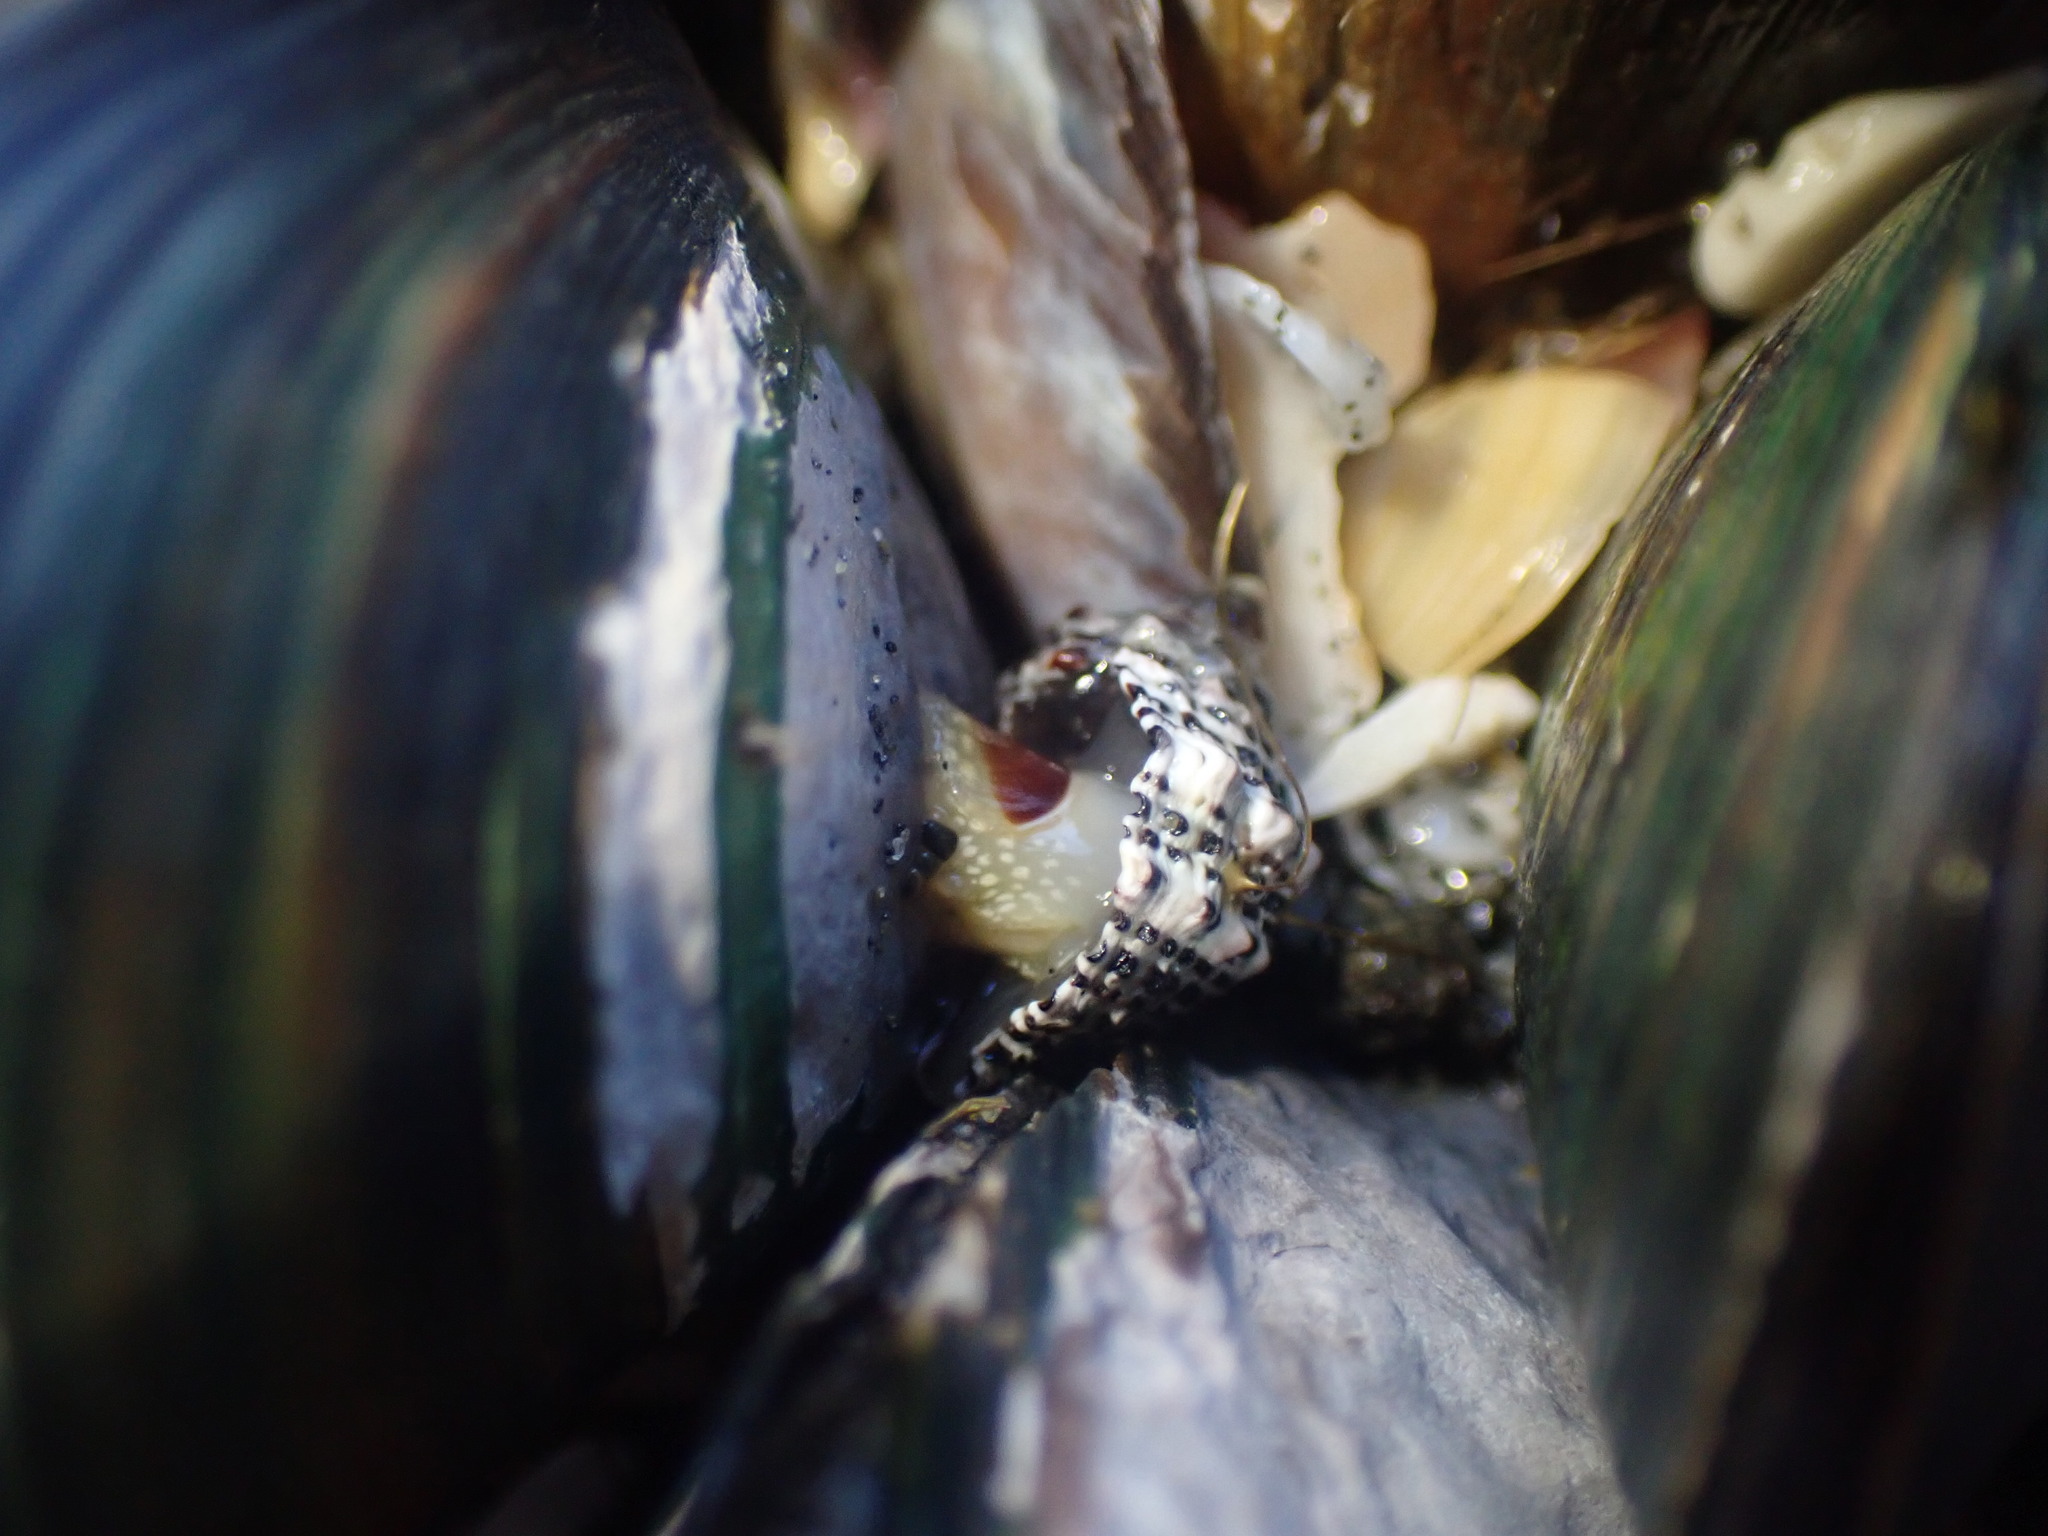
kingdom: Animalia
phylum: Mollusca
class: Gastropoda
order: Neogastropoda
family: Muricidae
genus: Haustrum
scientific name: Haustrum scobina
